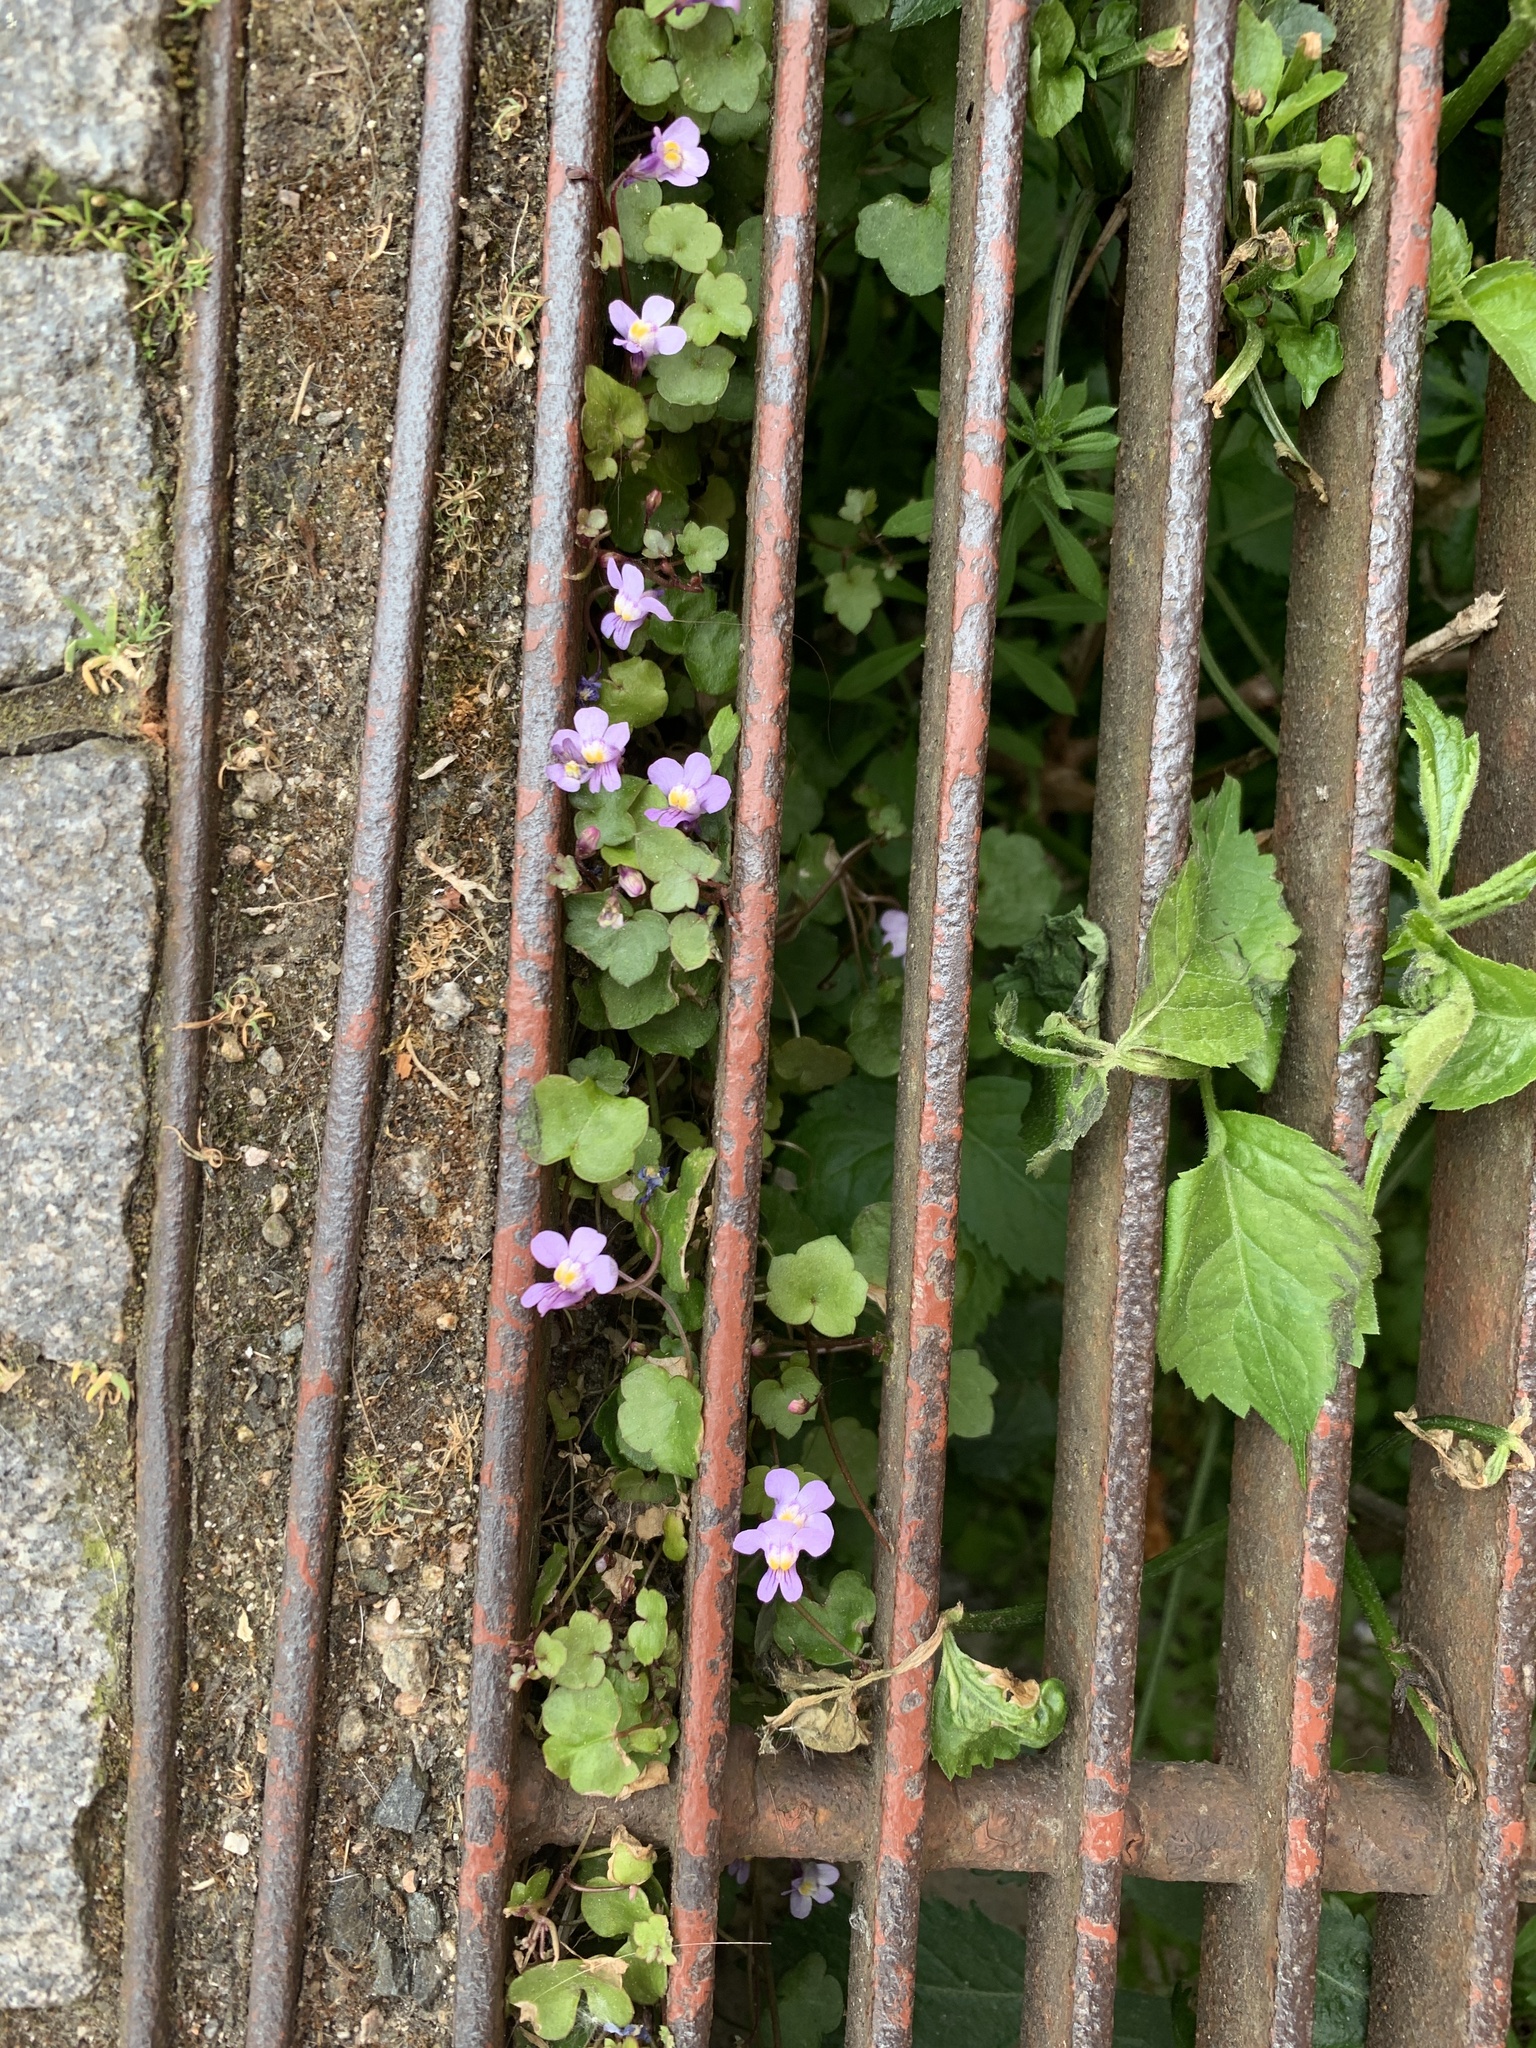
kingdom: Plantae
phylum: Tracheophyta
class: Magnoliopsida
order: Lamiales
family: Plantaginaceae
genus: Cymbalaria
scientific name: Cymbalaria muralis
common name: Ivy-leaved toadflax
